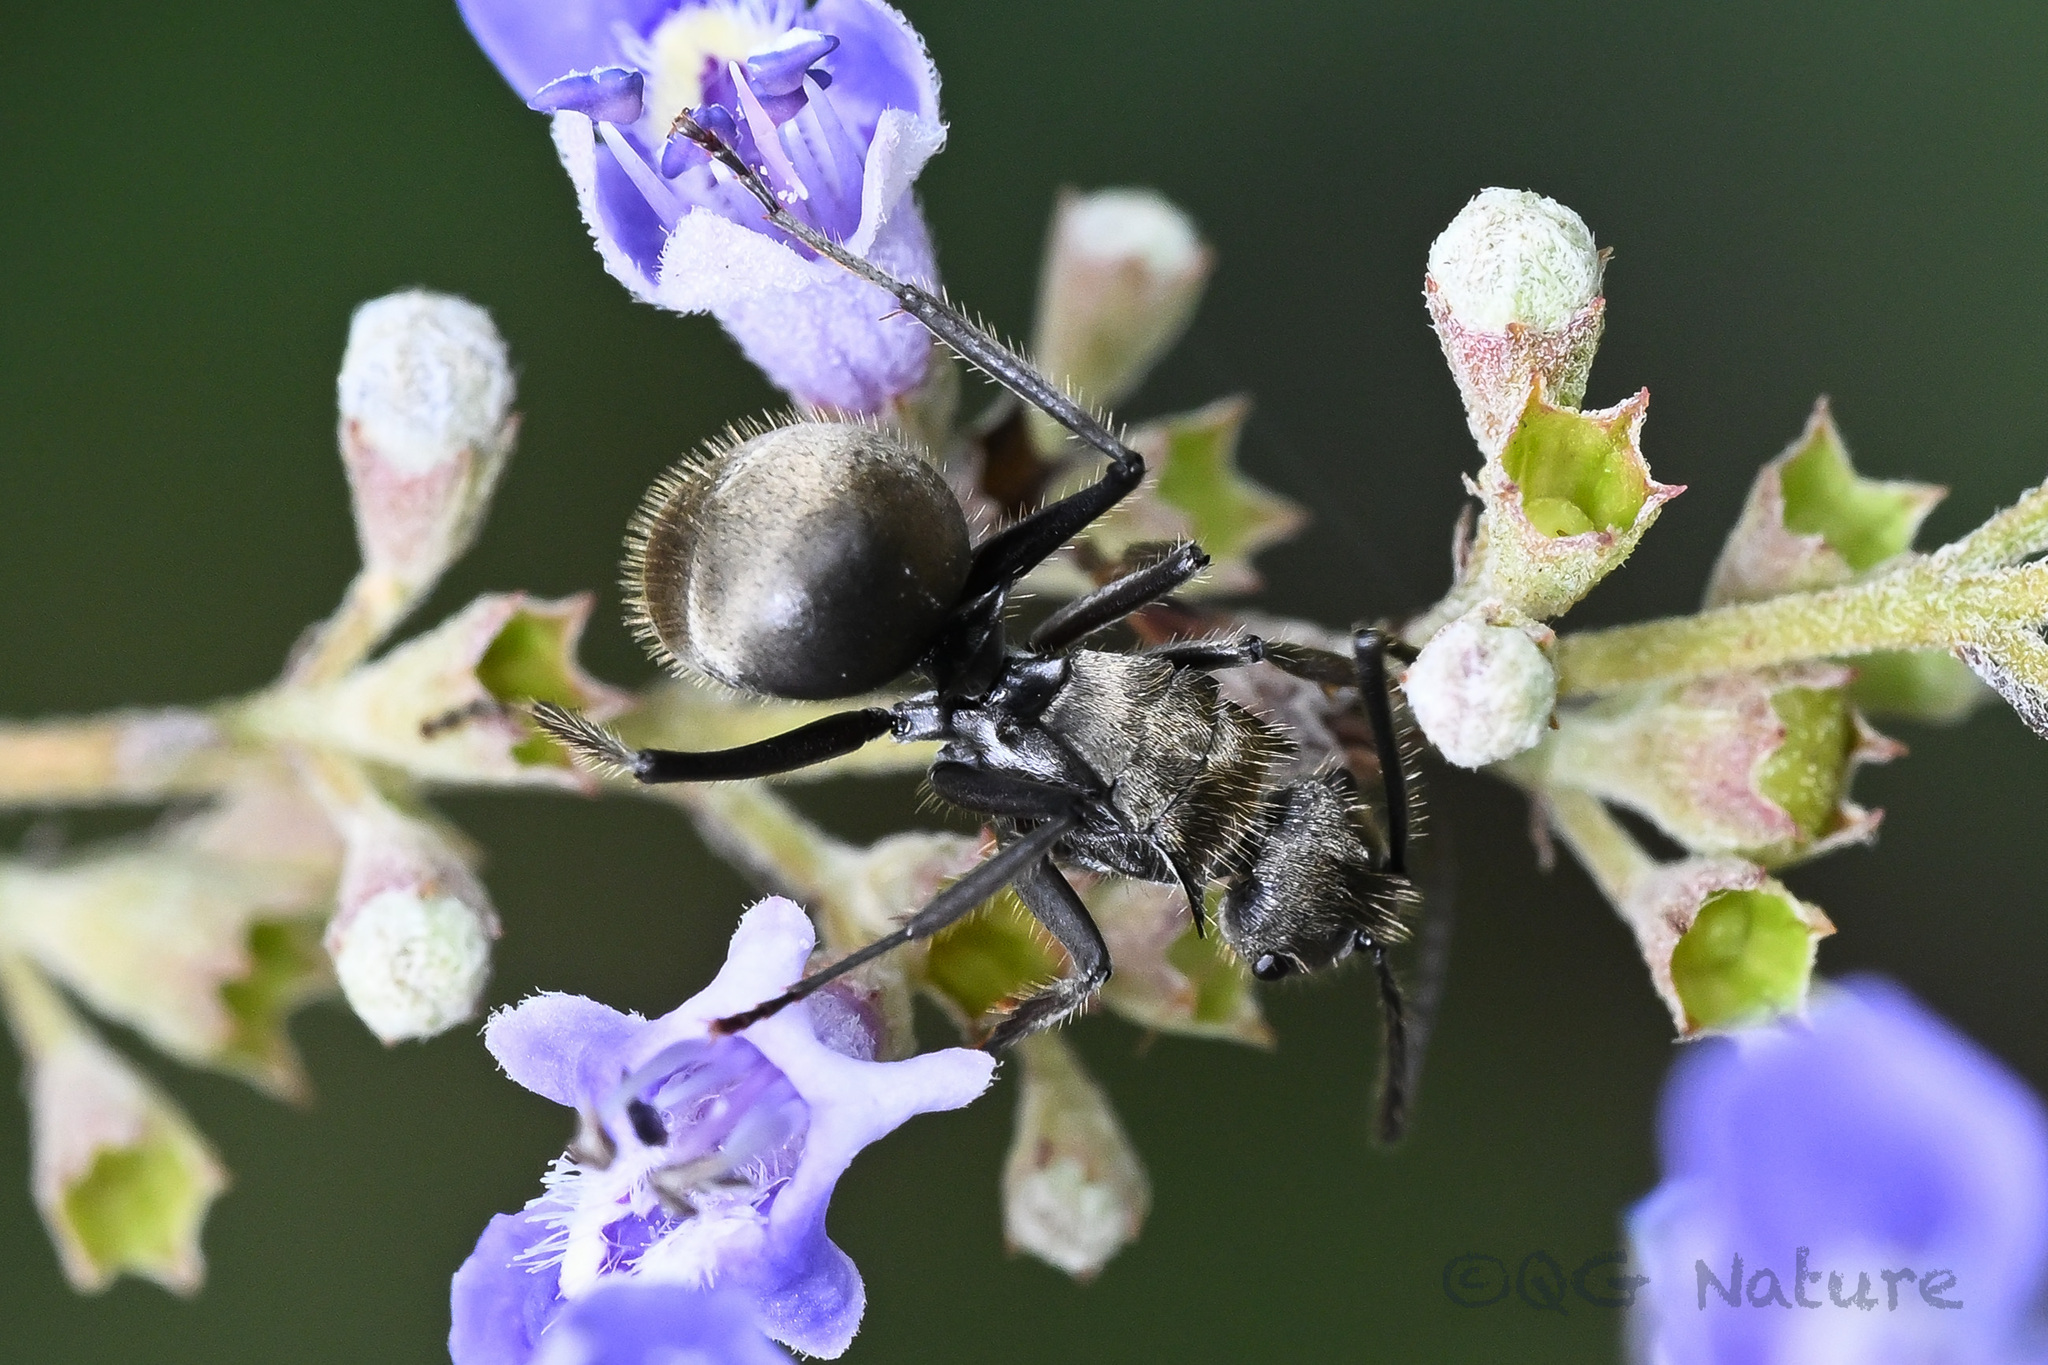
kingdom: Animalia
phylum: Arthropoda
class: Insecta
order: Hymenoptera
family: Formicidae
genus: Polyrhachis
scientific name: Polyrhachis vigilans
